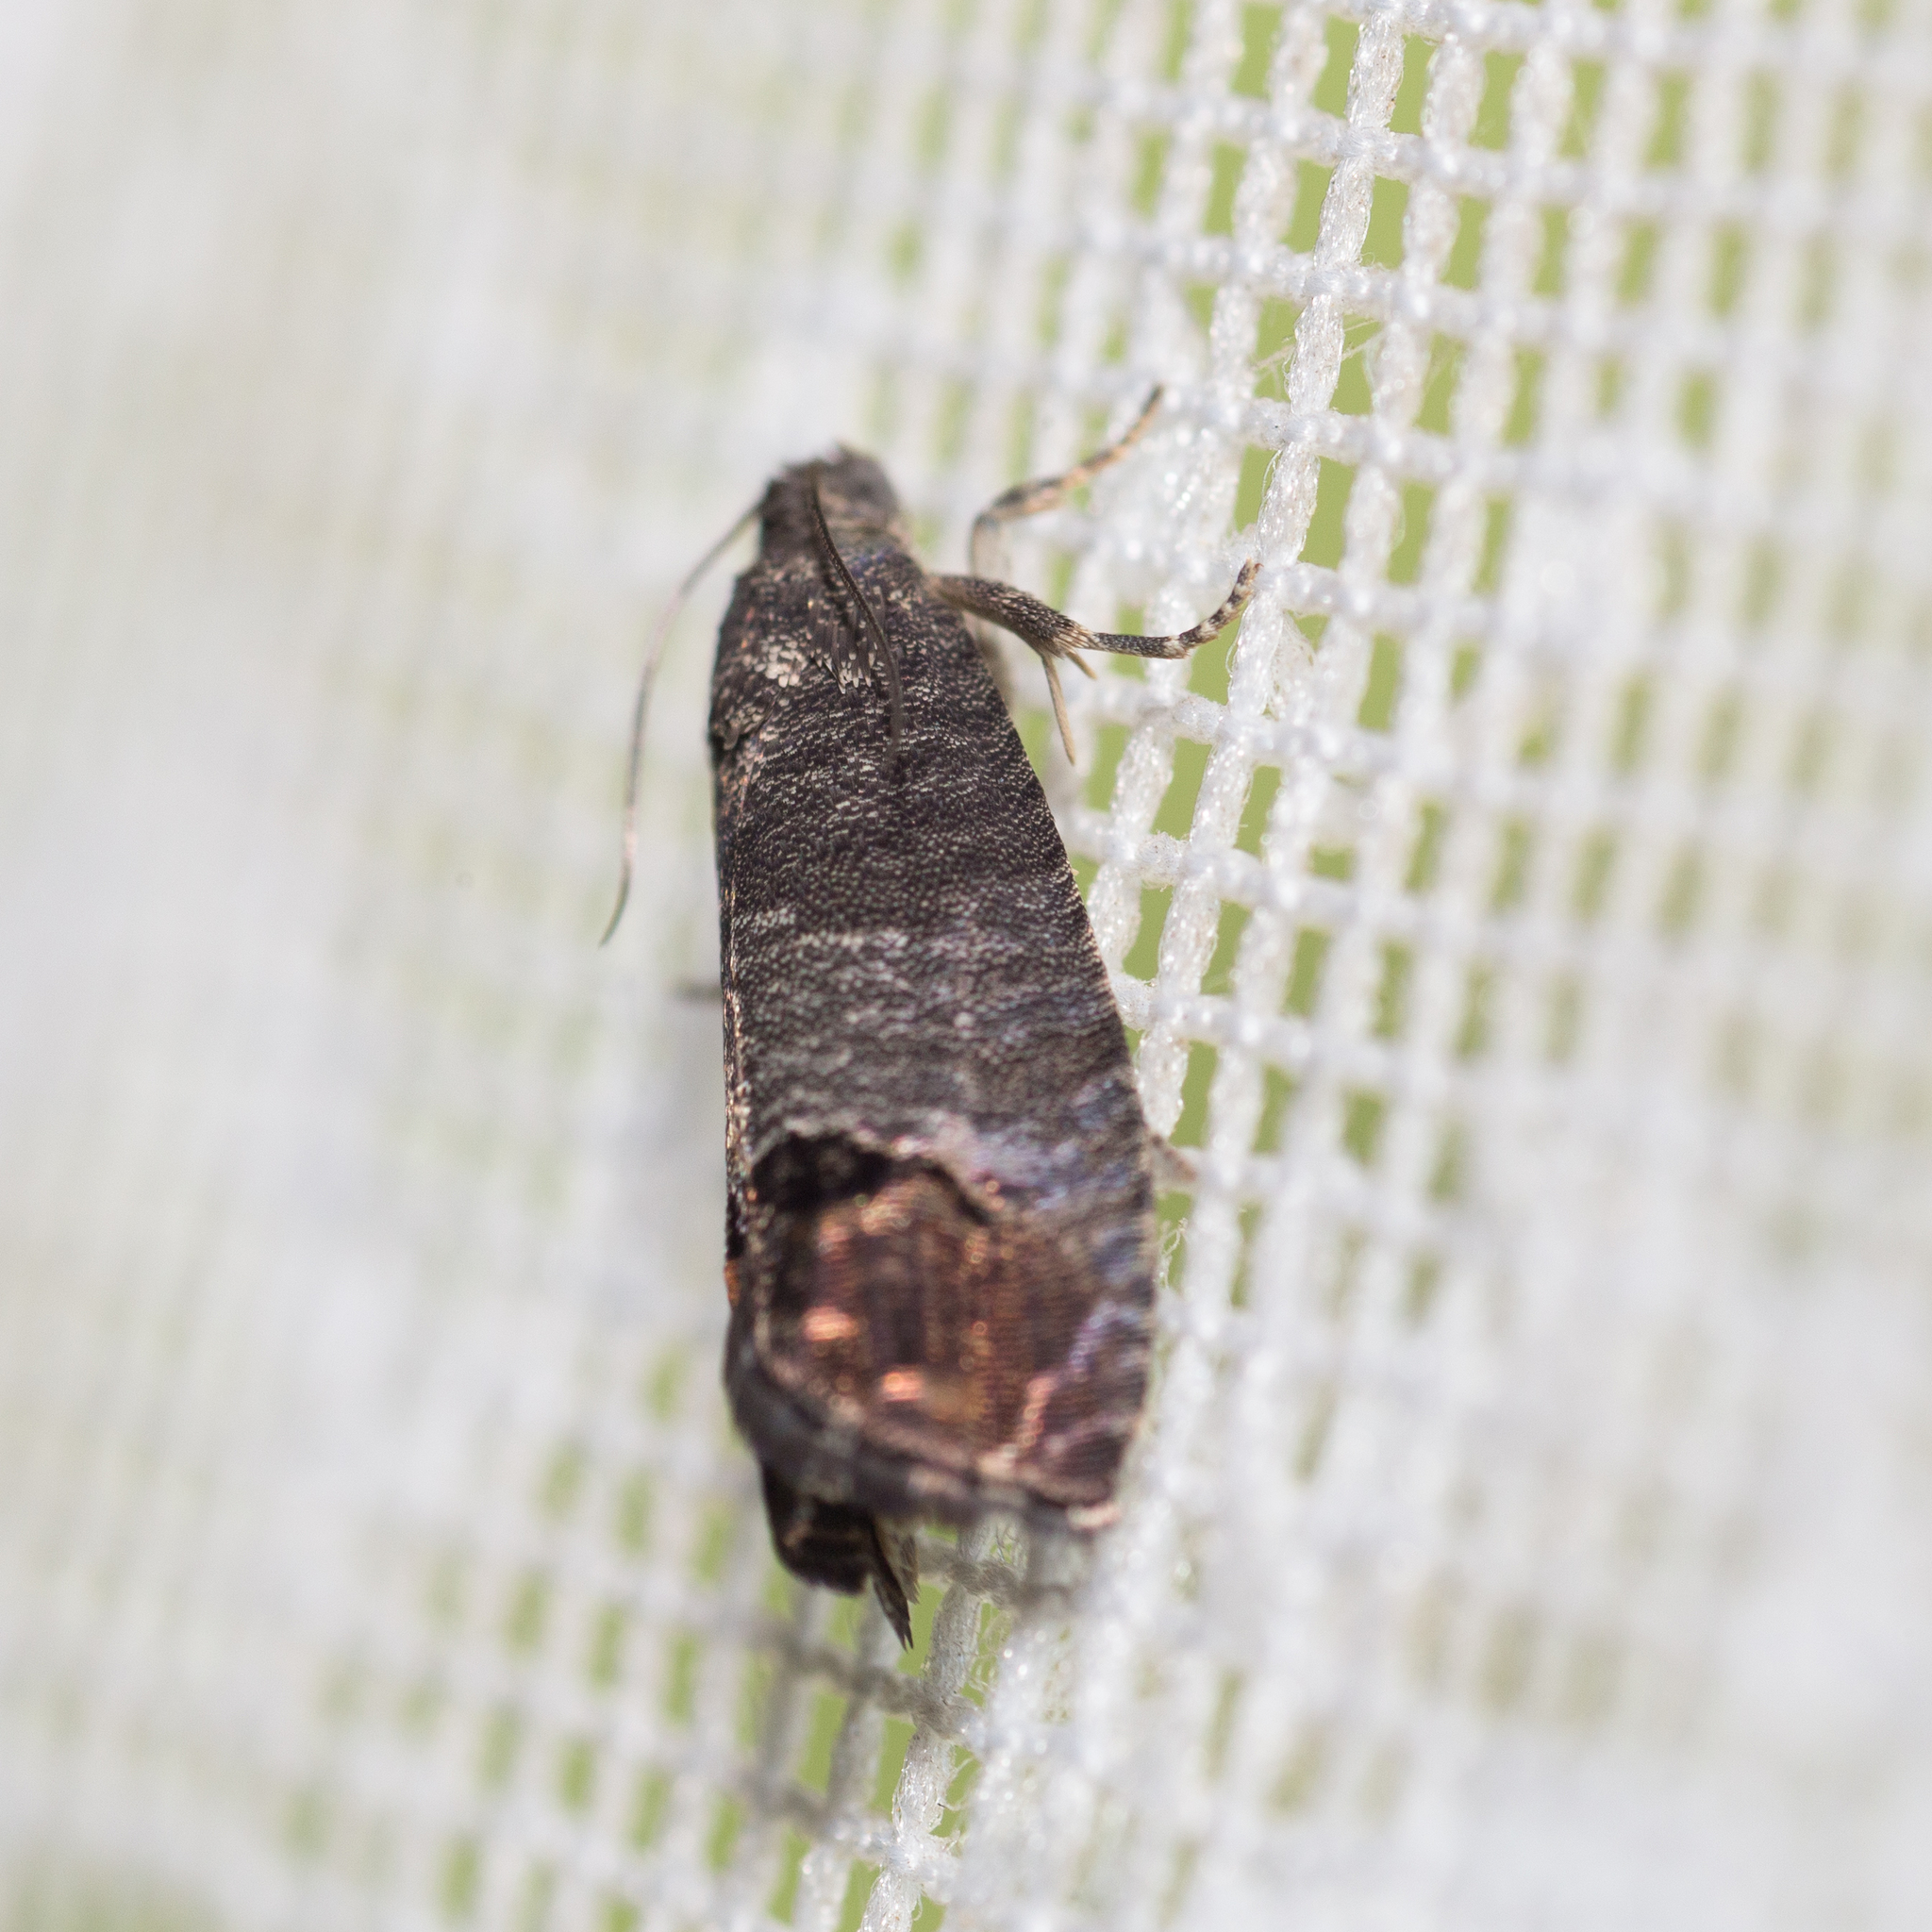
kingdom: Animalia
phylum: Arthropoda
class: Insecta
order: Lepidoptera
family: Tortricidae
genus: Cydia
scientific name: Cydia pomonella
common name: Codling moth
